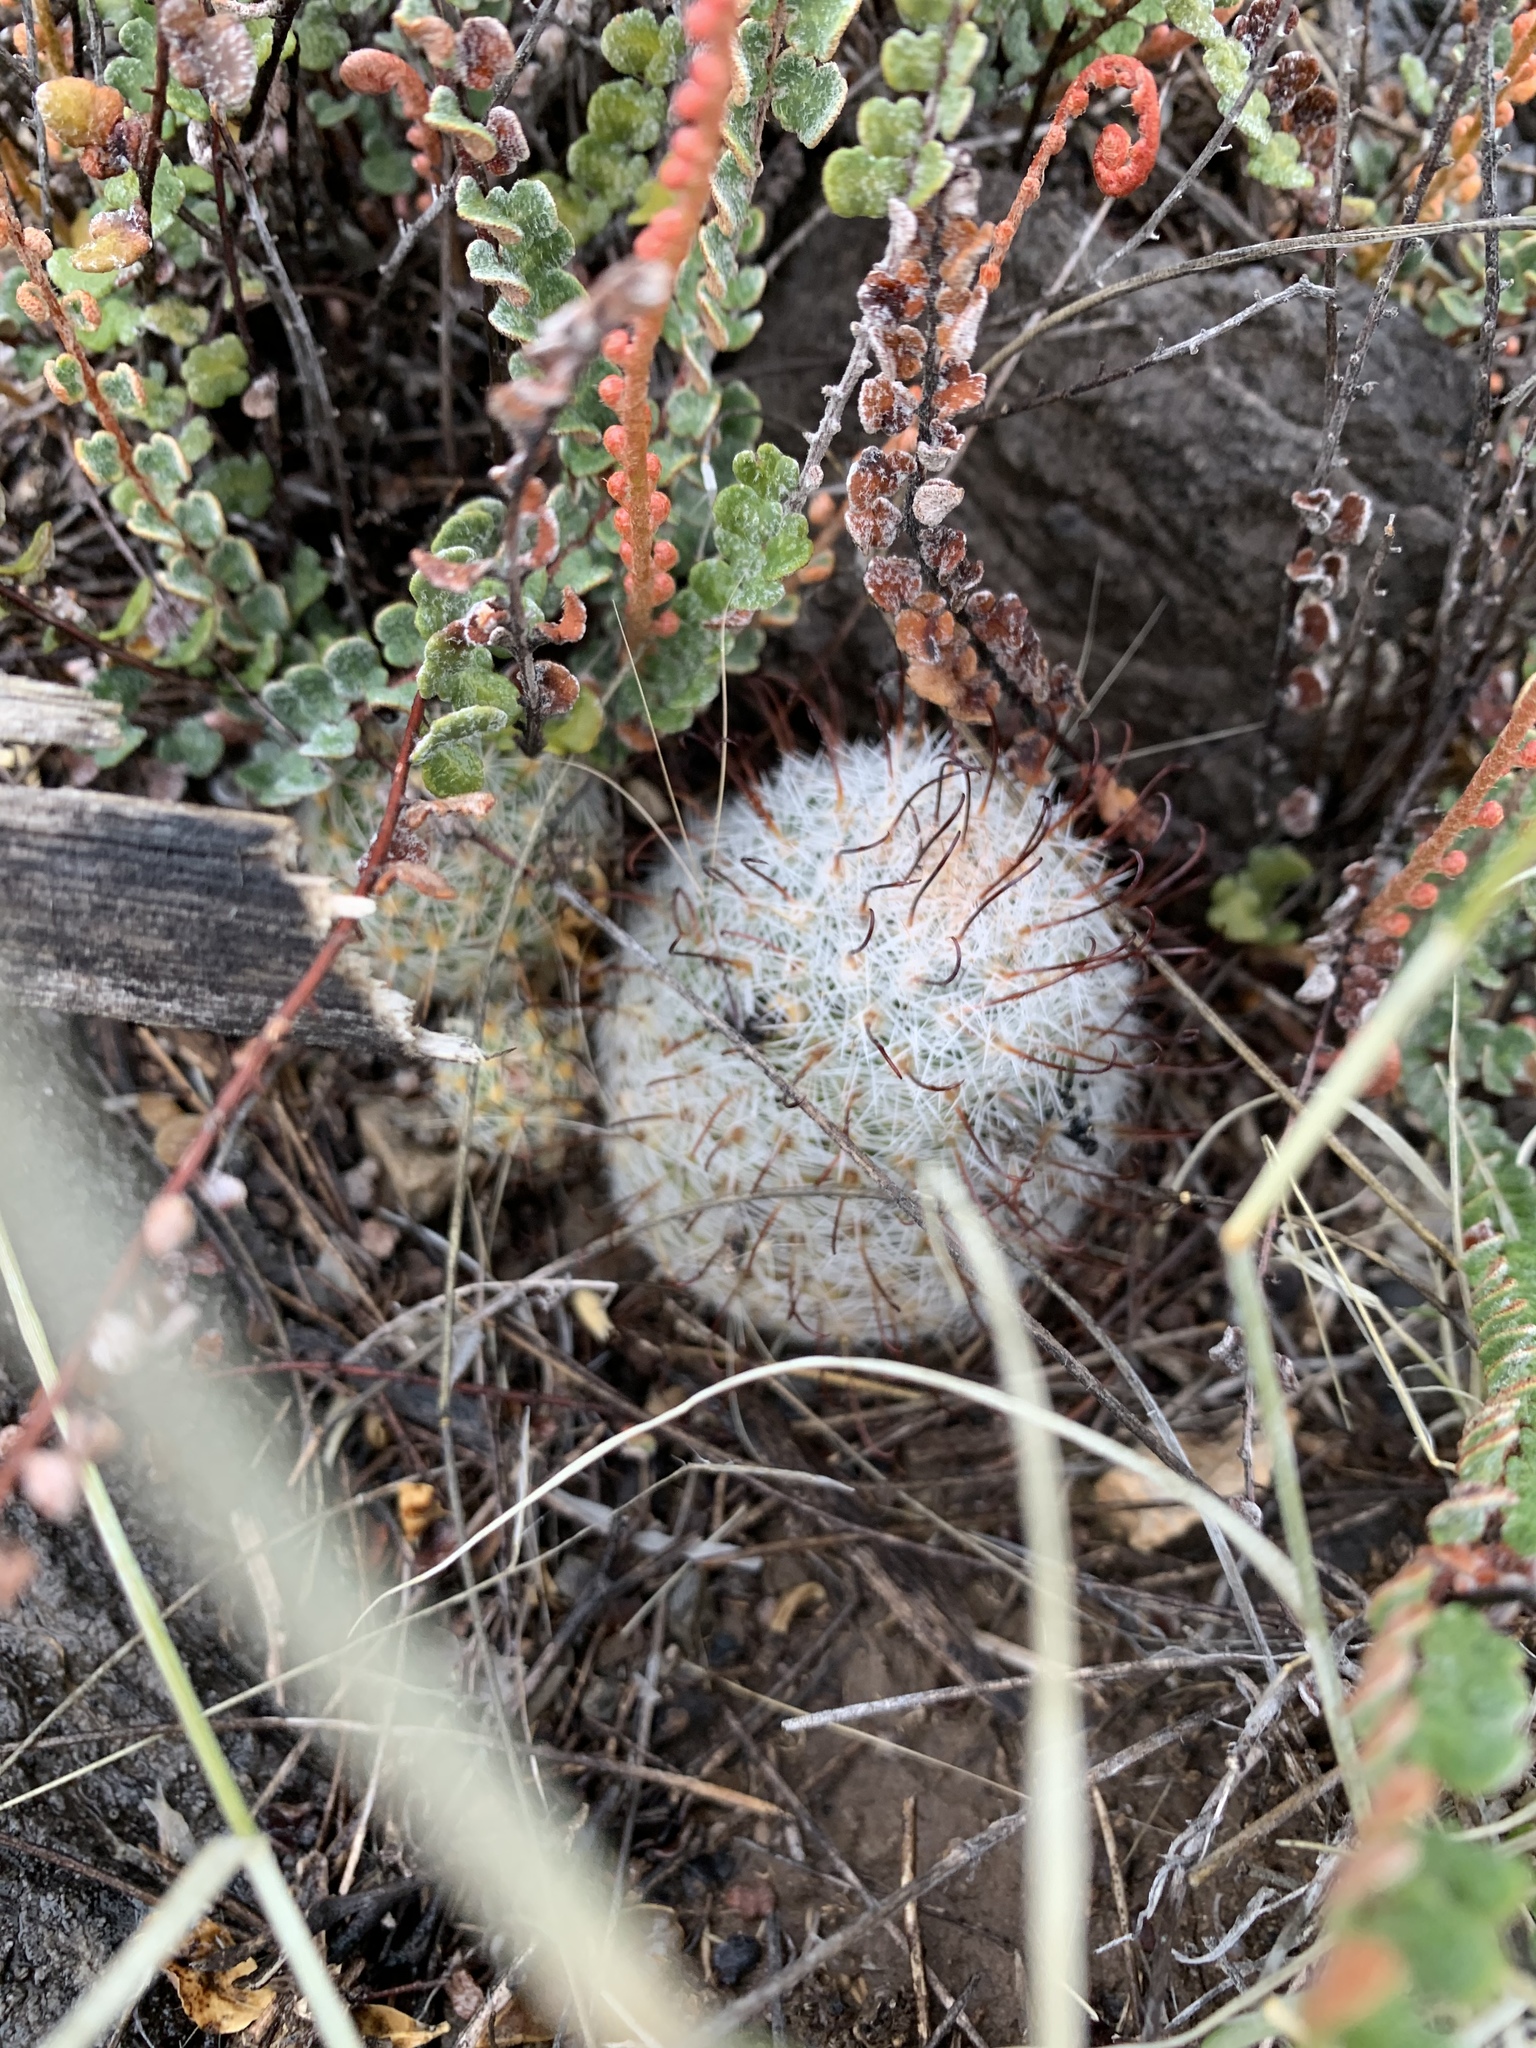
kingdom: Plantae
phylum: Tracheophyta
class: Magnoliopsida
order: Caryophyllales
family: Cactaceae
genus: Cochemiea
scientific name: Cochemiea grahamii
